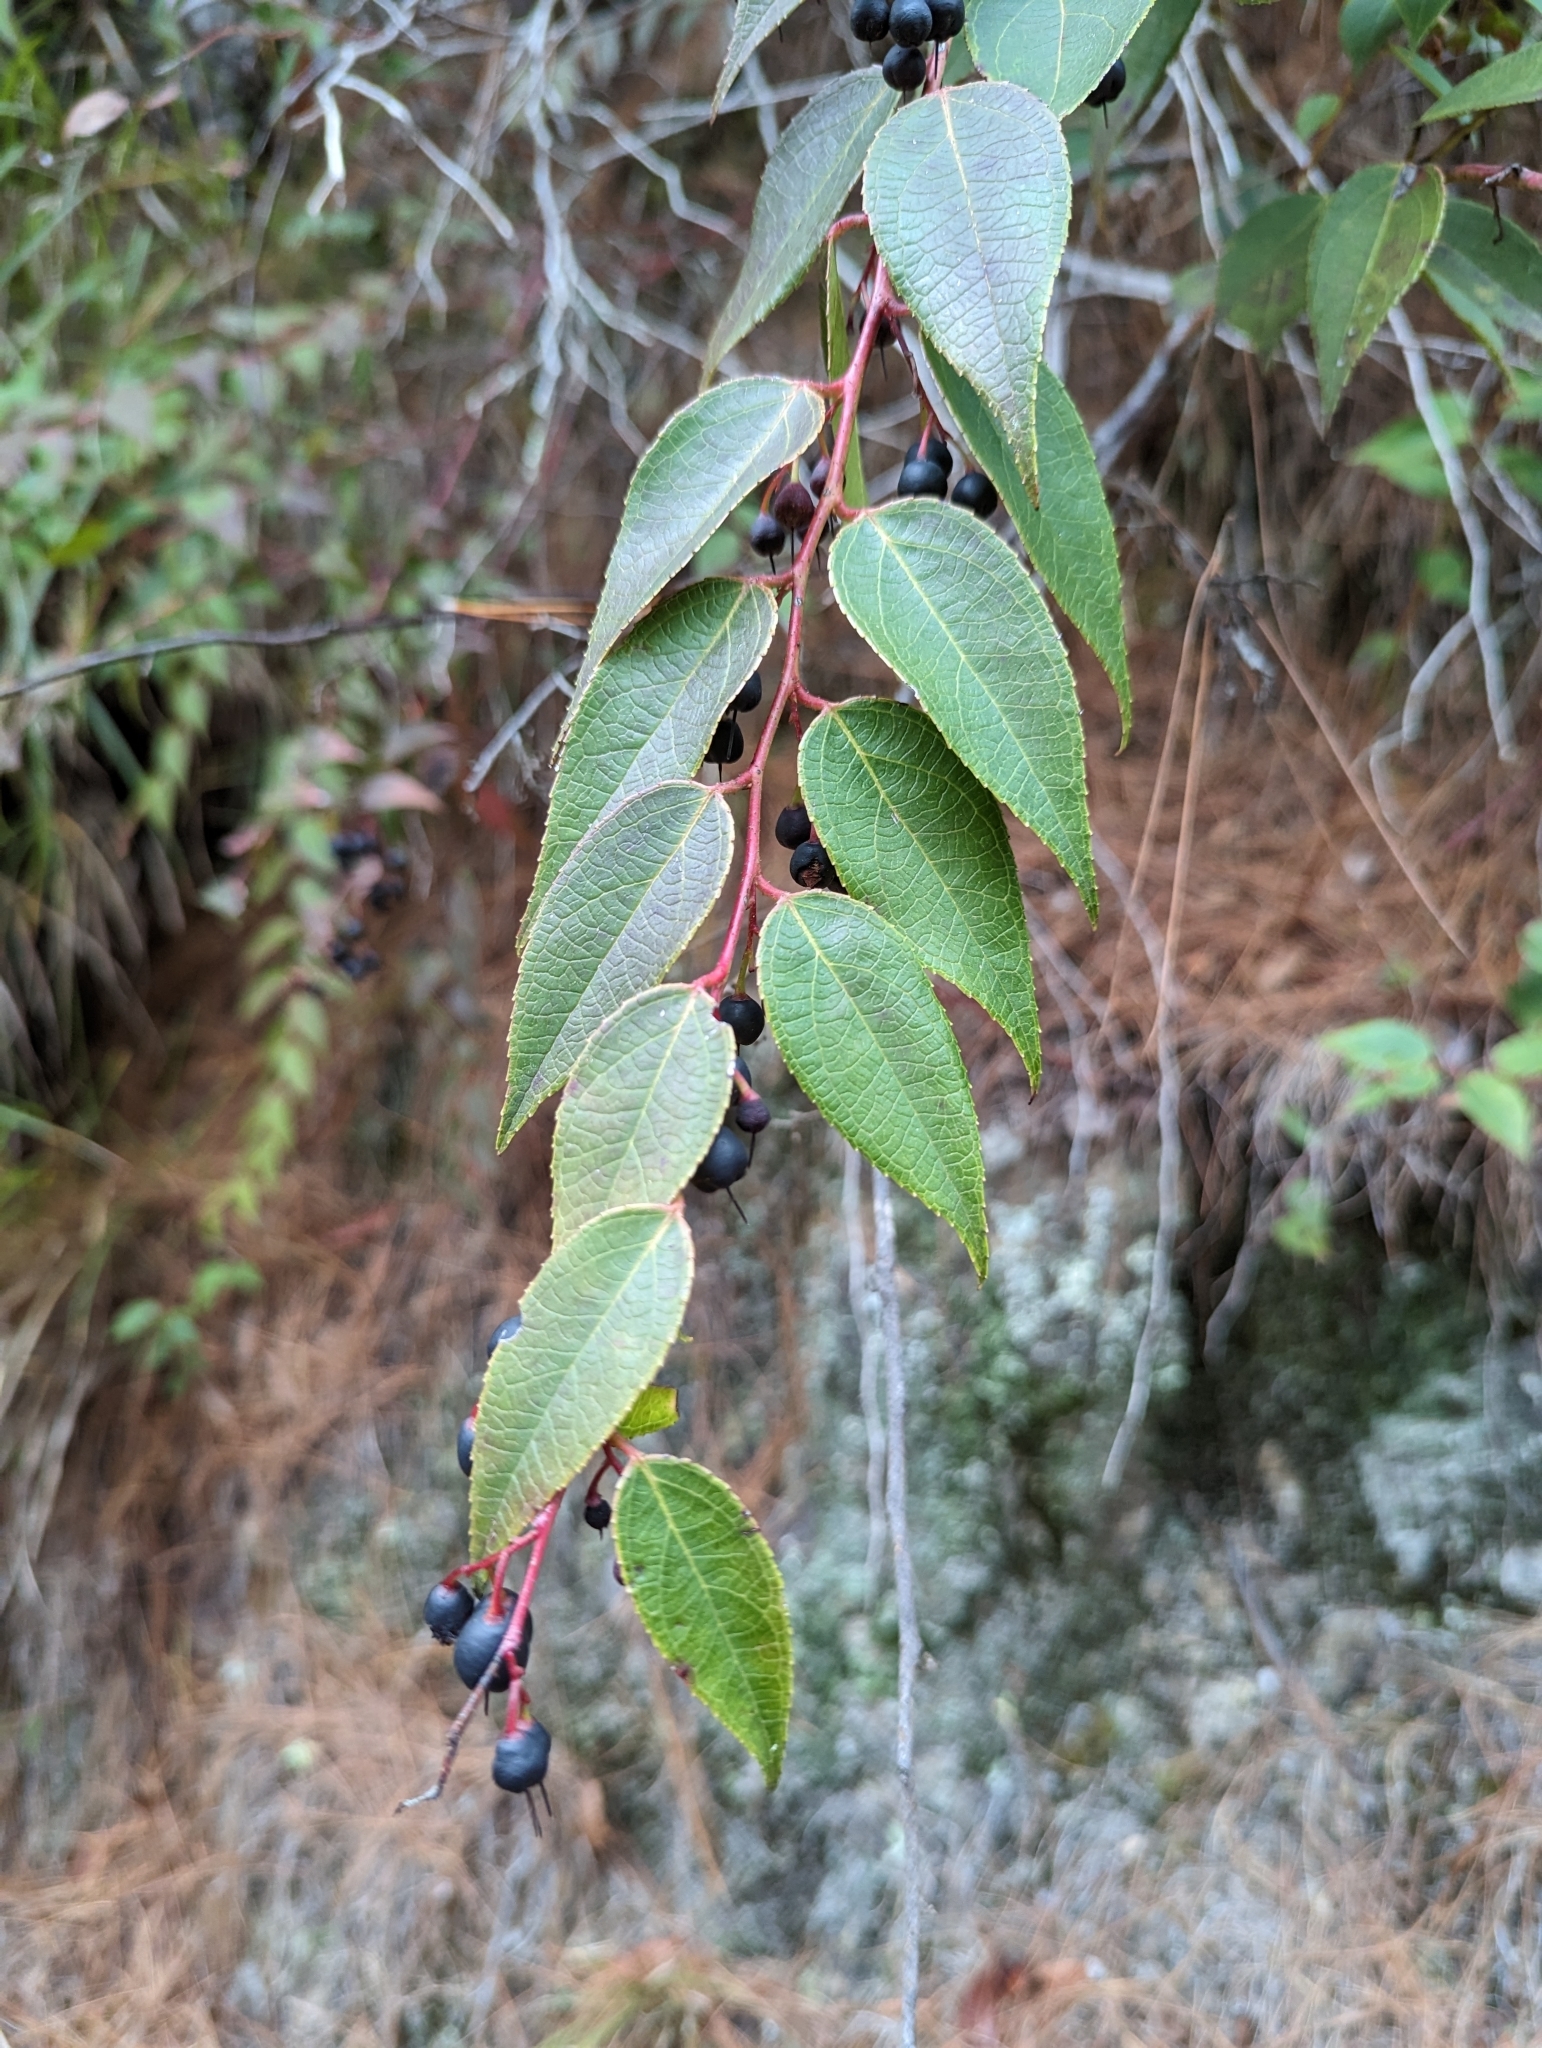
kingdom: Plantae
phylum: Tracheophyta
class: Magnoliopsida
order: Ericales
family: Ericaceae
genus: Gaultheria
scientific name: Gaultheria leucocarpa
